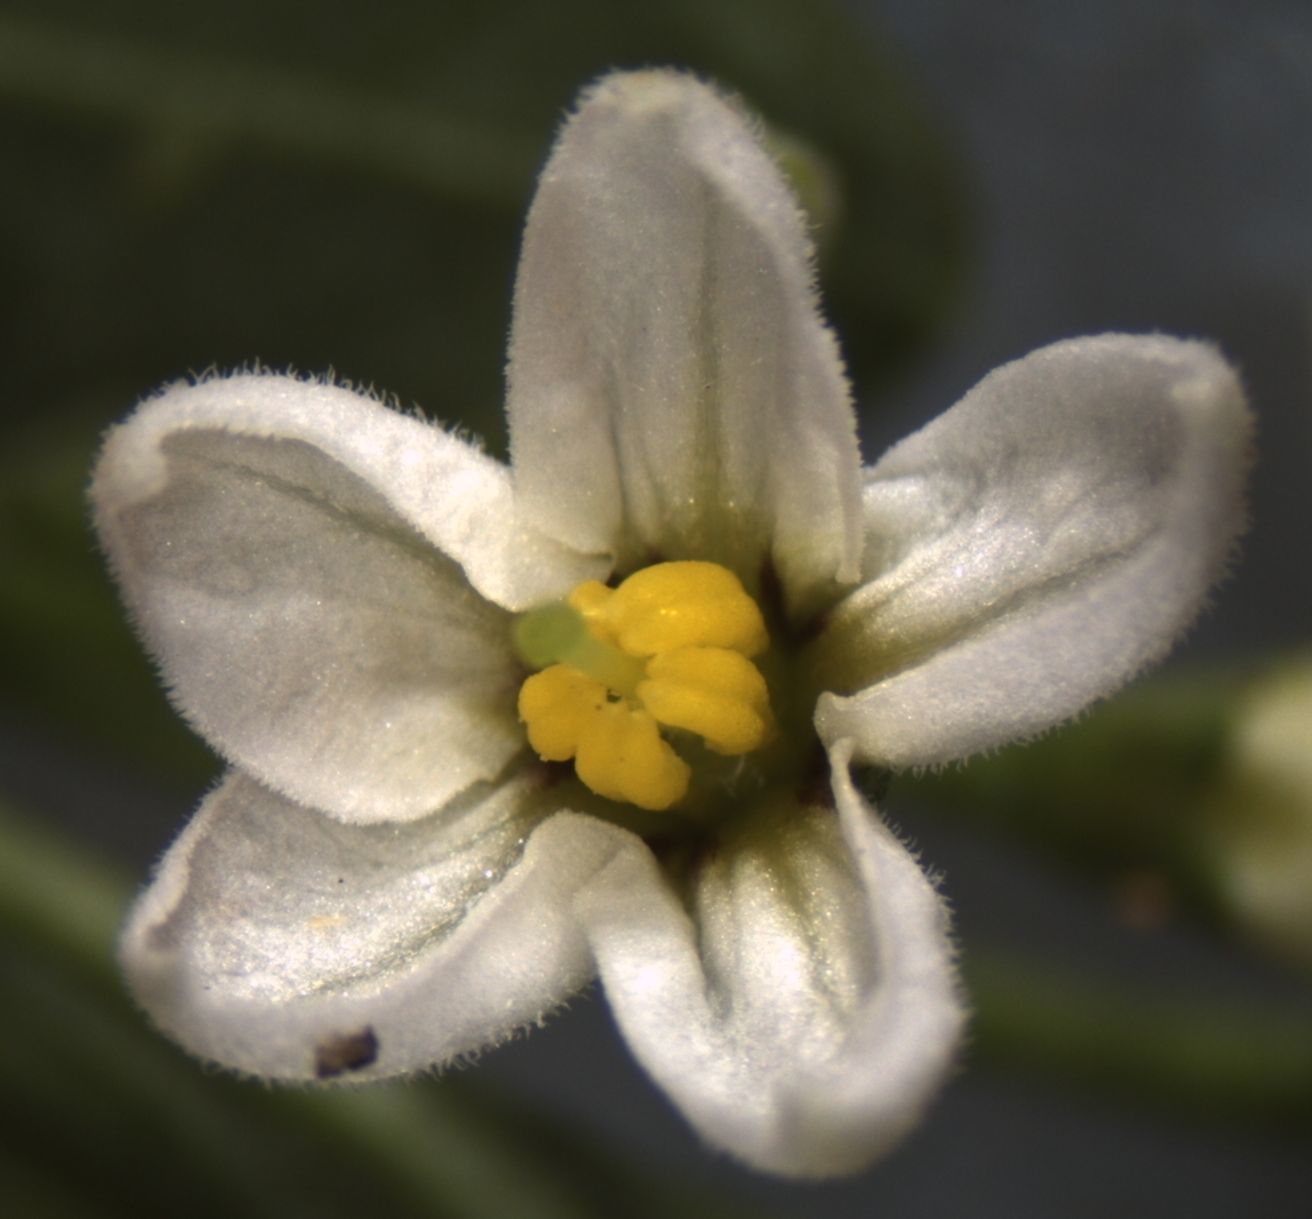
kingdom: Plantae
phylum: Tracheophyta
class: Magnoliopsida
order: Solanales
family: Solanaceae
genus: Solanum
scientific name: Solanum chenopodioides
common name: Tall nightshade
